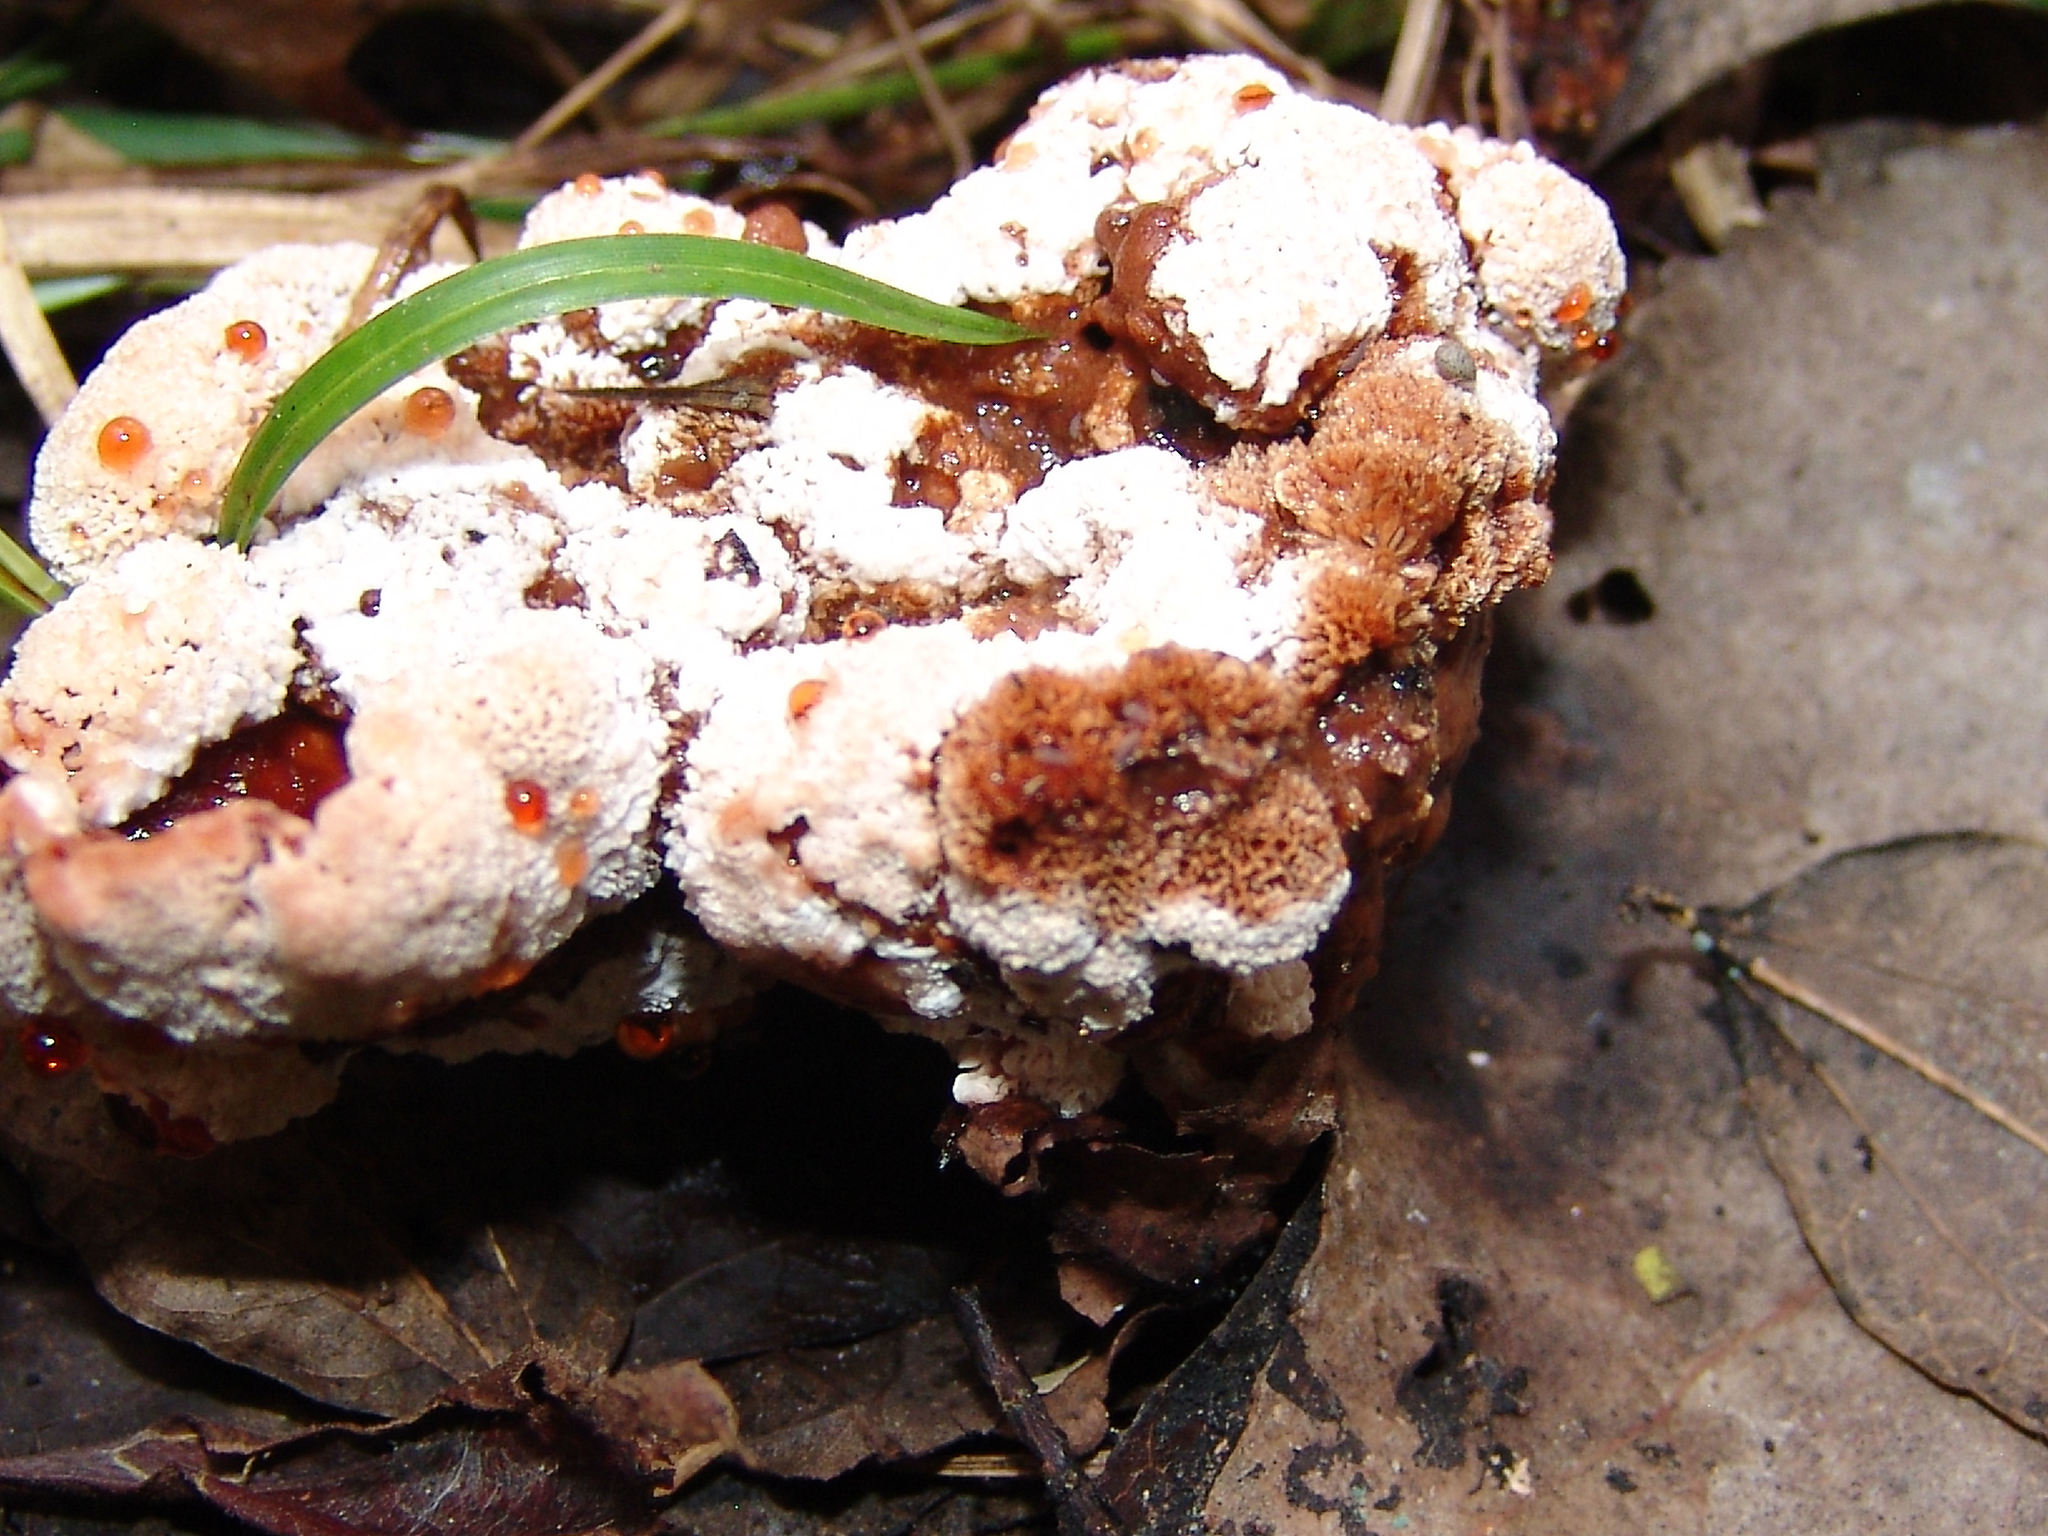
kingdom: Fungi
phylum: Basidiomycota
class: Agaricomycetes
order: Polyporales
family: Podoscyphaceae
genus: Abortiporus
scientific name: Abortiporus biennis
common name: Blushing rosette
